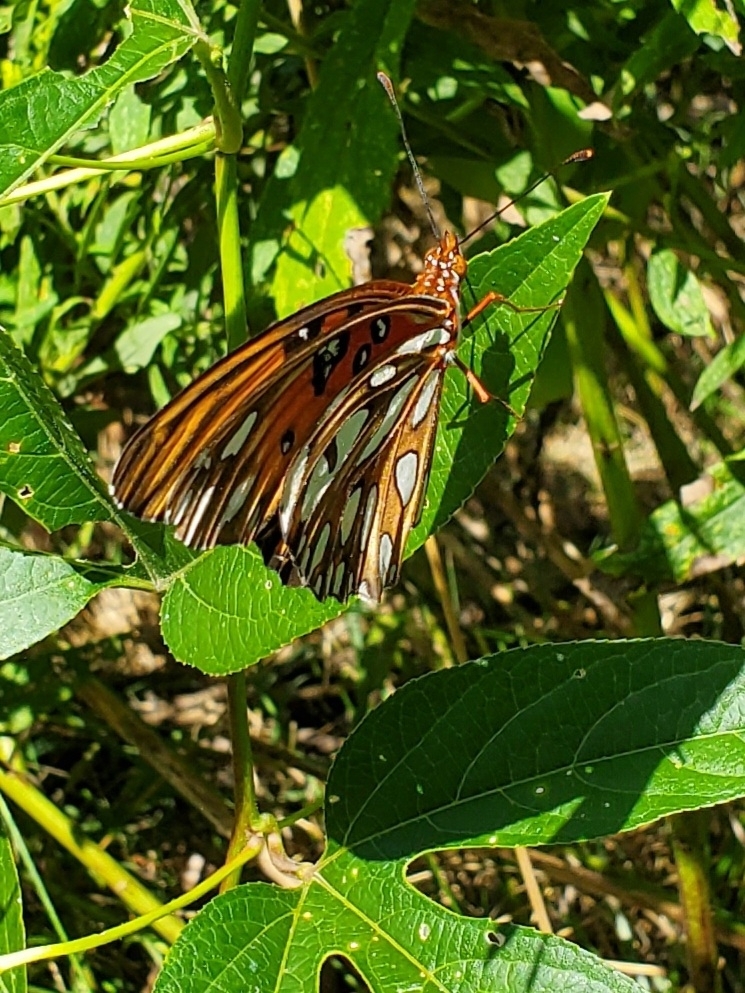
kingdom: Animalia
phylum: Arthropoda
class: Insecta
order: Lepidoptera
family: Nymphalidae
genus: Dione
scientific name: Dione vanillae
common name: Gulf fritillary
